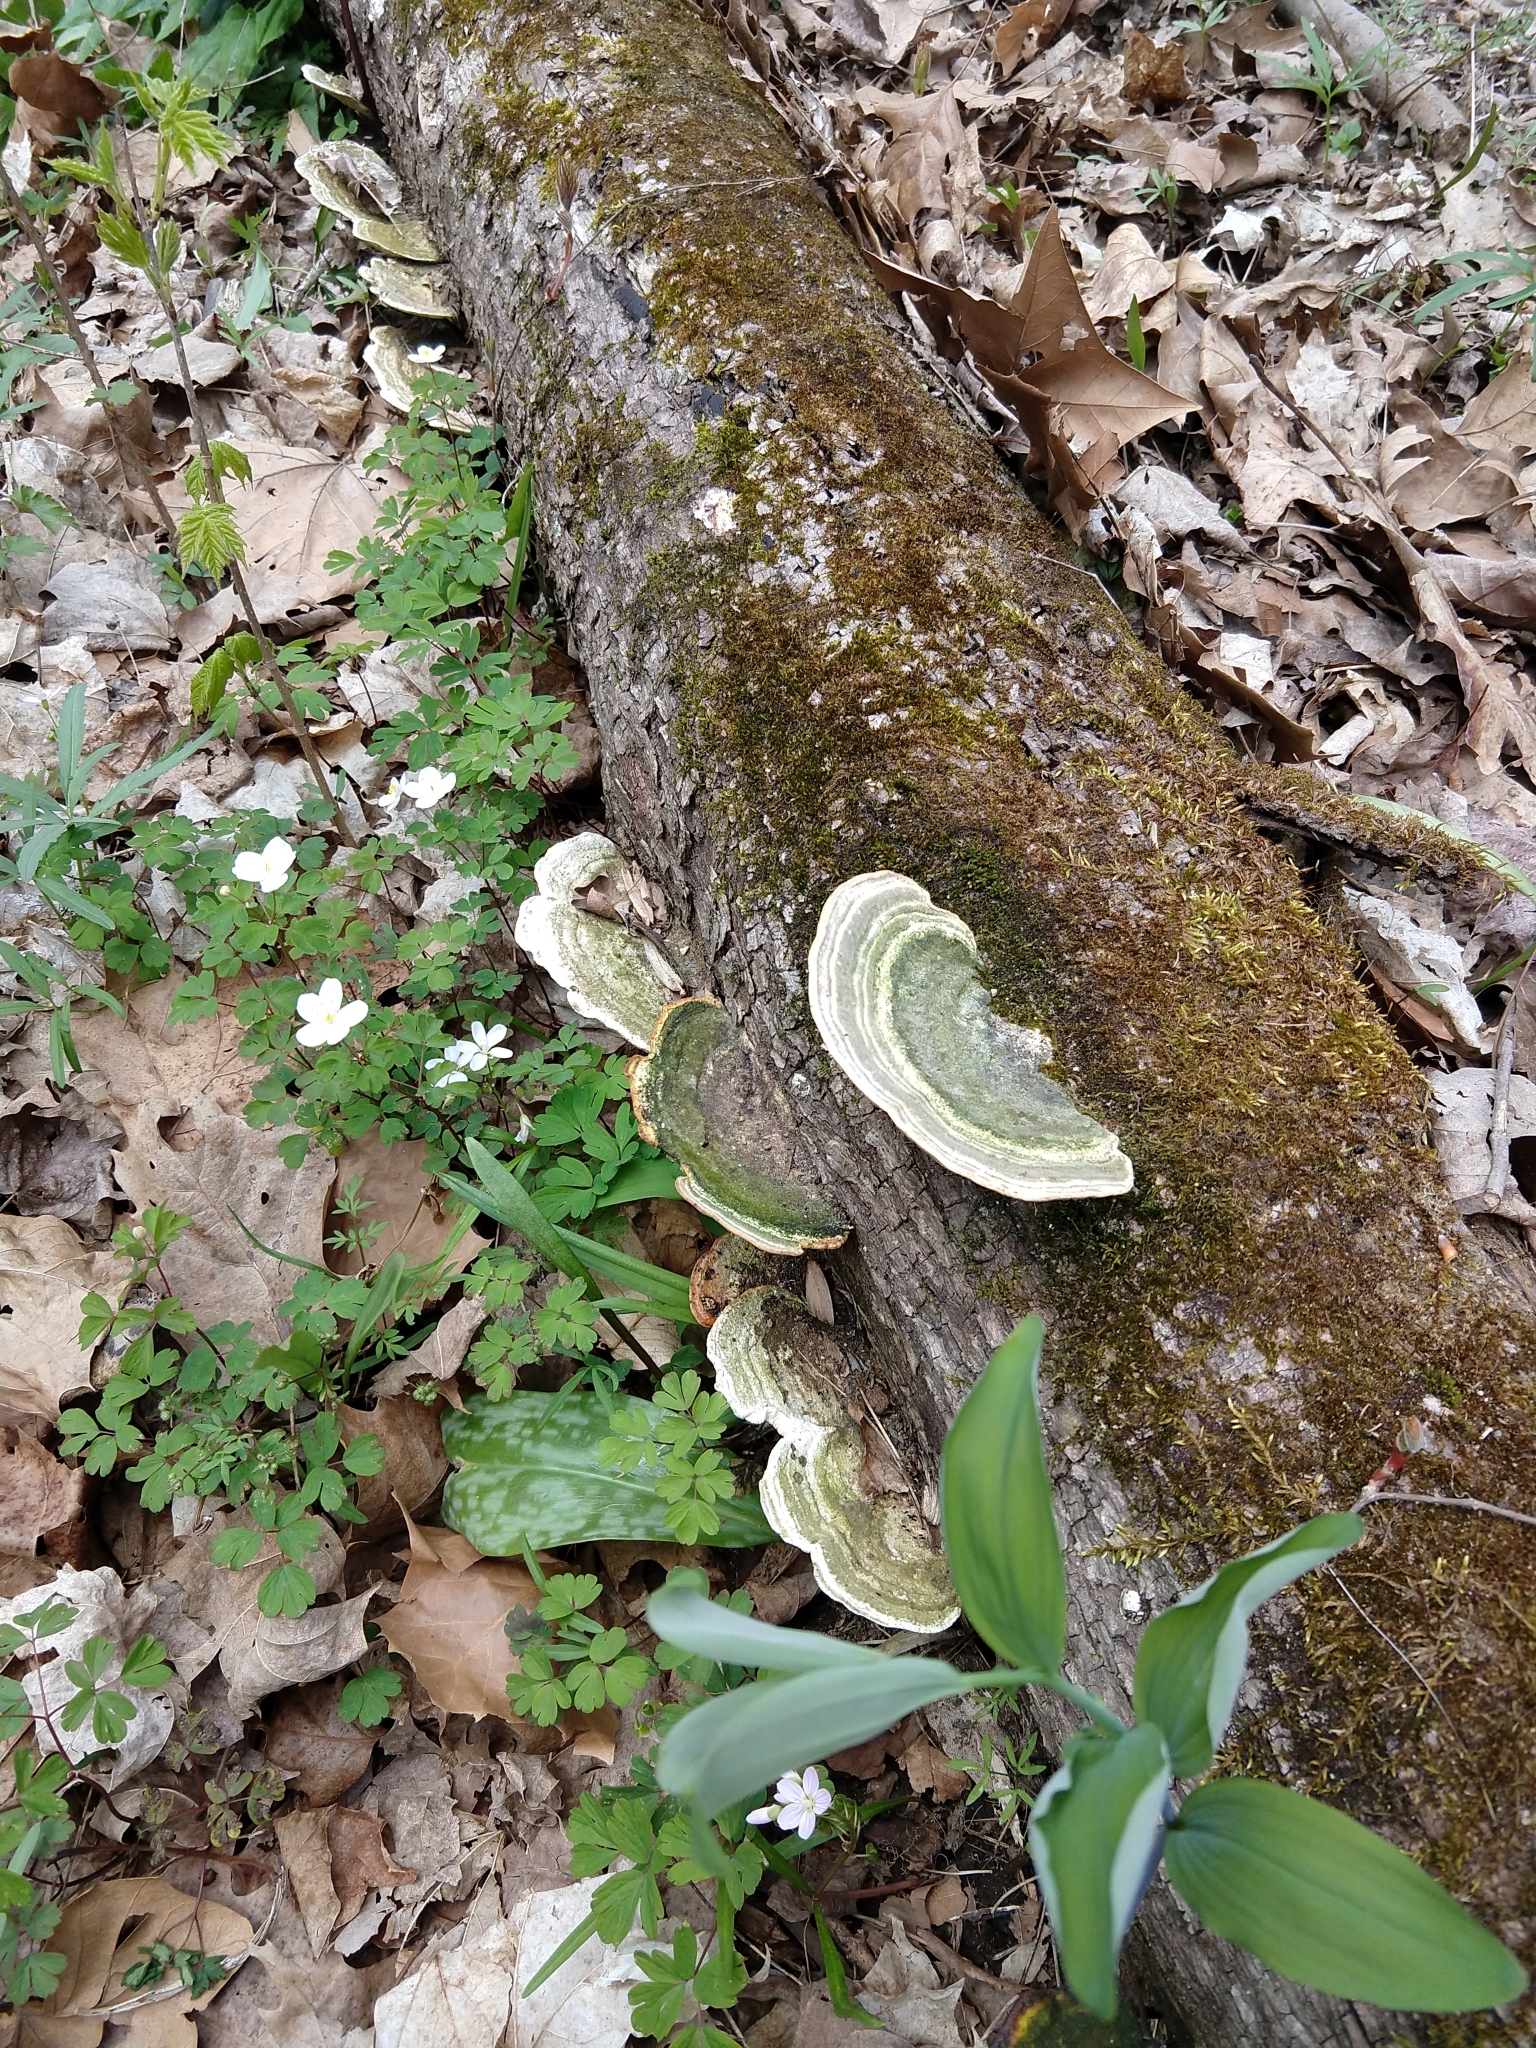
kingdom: Fungi
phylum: Basidiomycota
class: Agaricomycetes
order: Polyporales
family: Polyporaceae
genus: Trametes
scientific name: Trametes gibbosa
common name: Lumpy bracket
